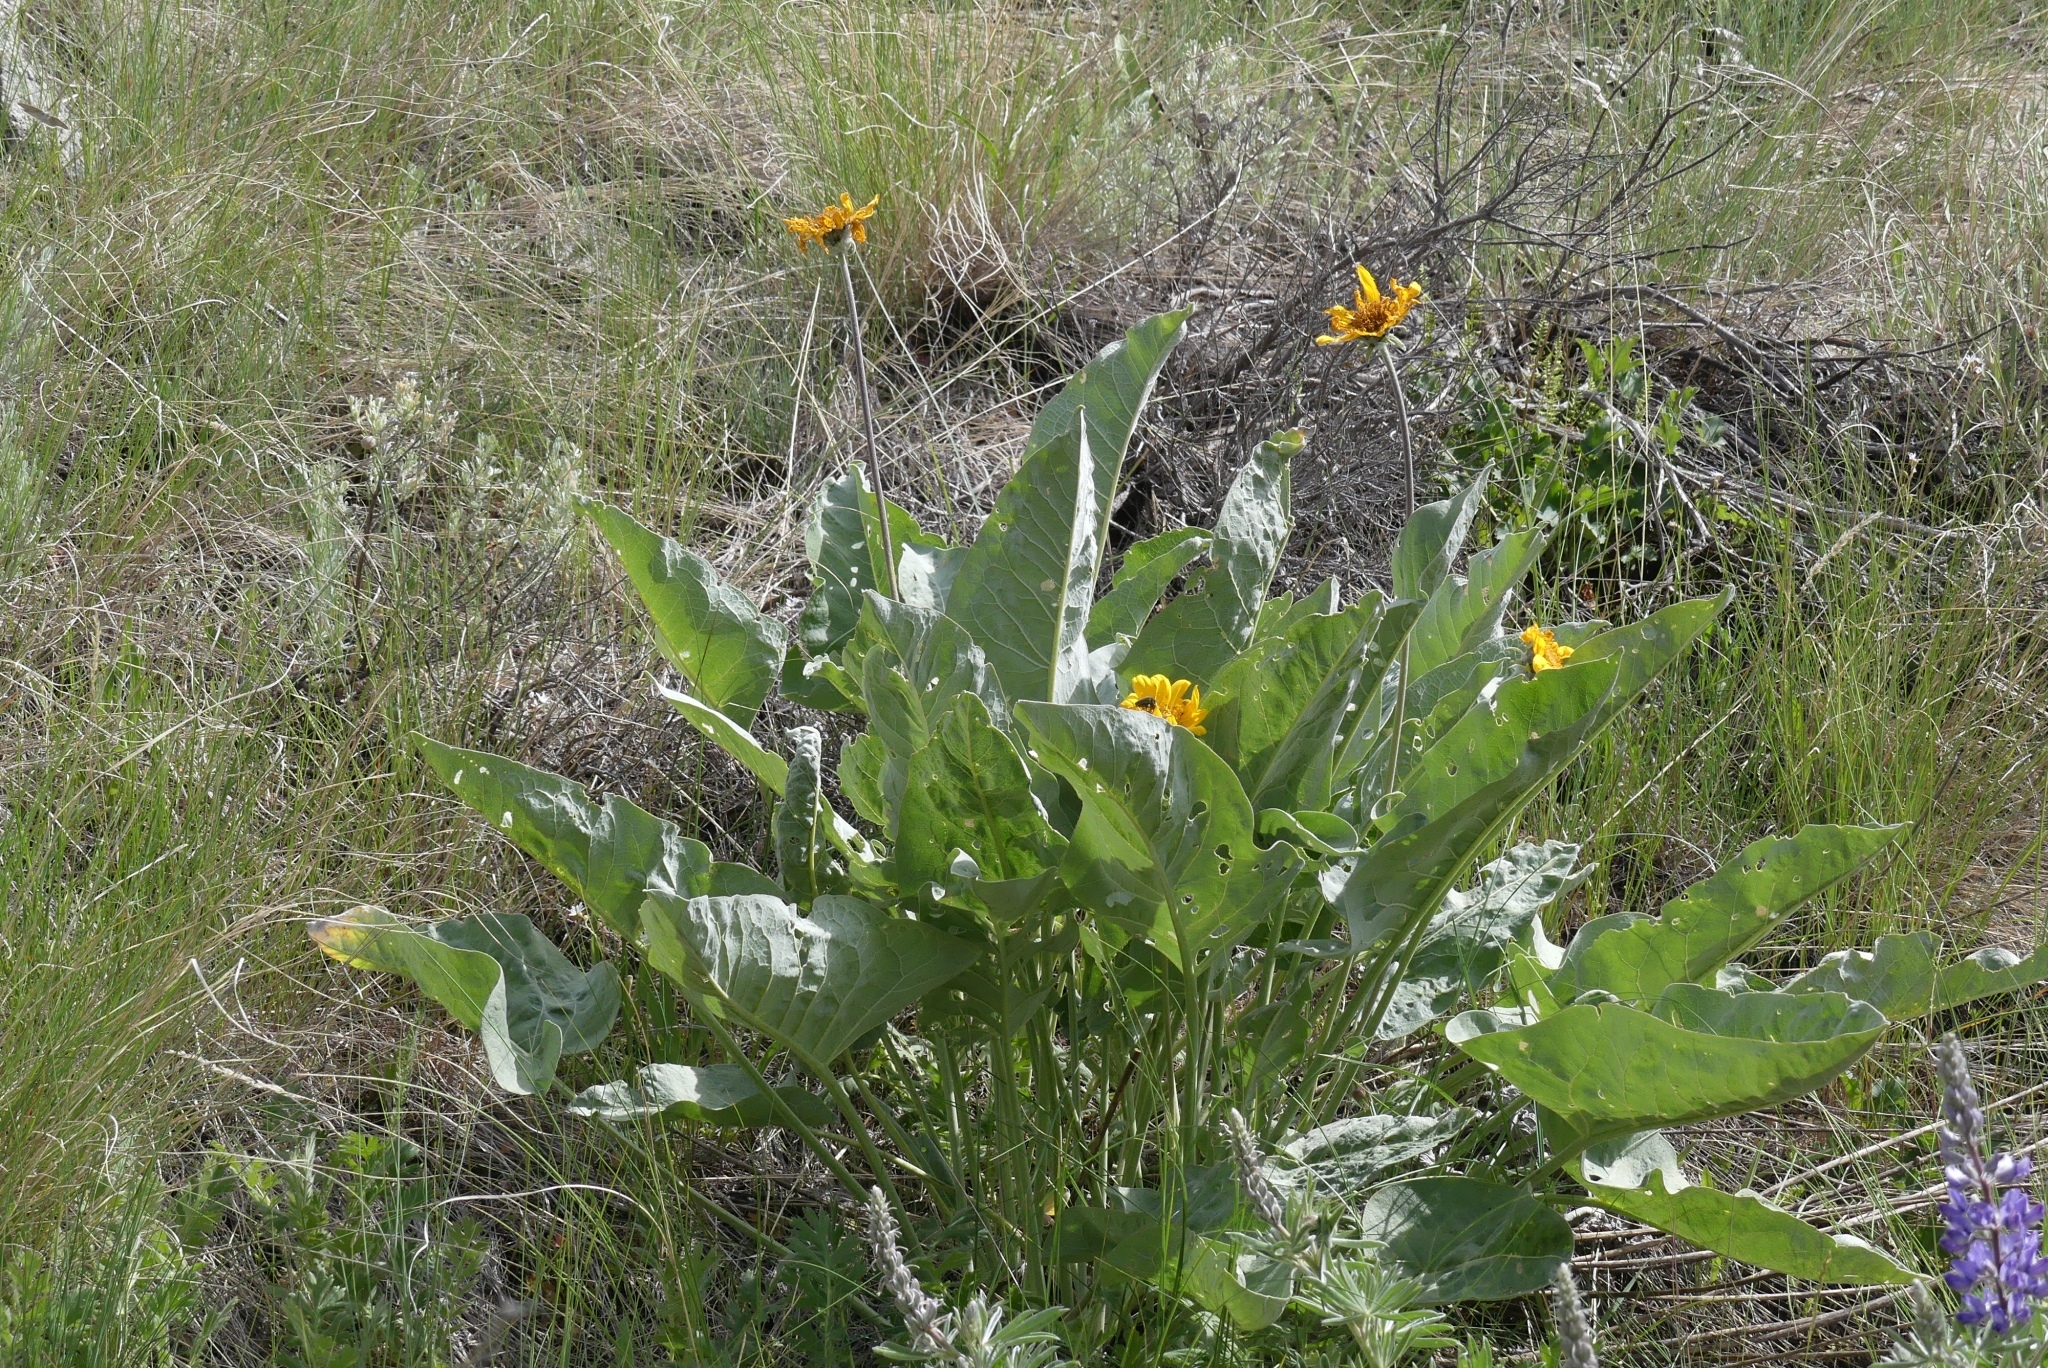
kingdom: Plantae
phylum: Tracheophyta
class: Magnoliopsida
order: Asterales
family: Asteraceae
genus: Wyethia
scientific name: Wyethia sagittata
